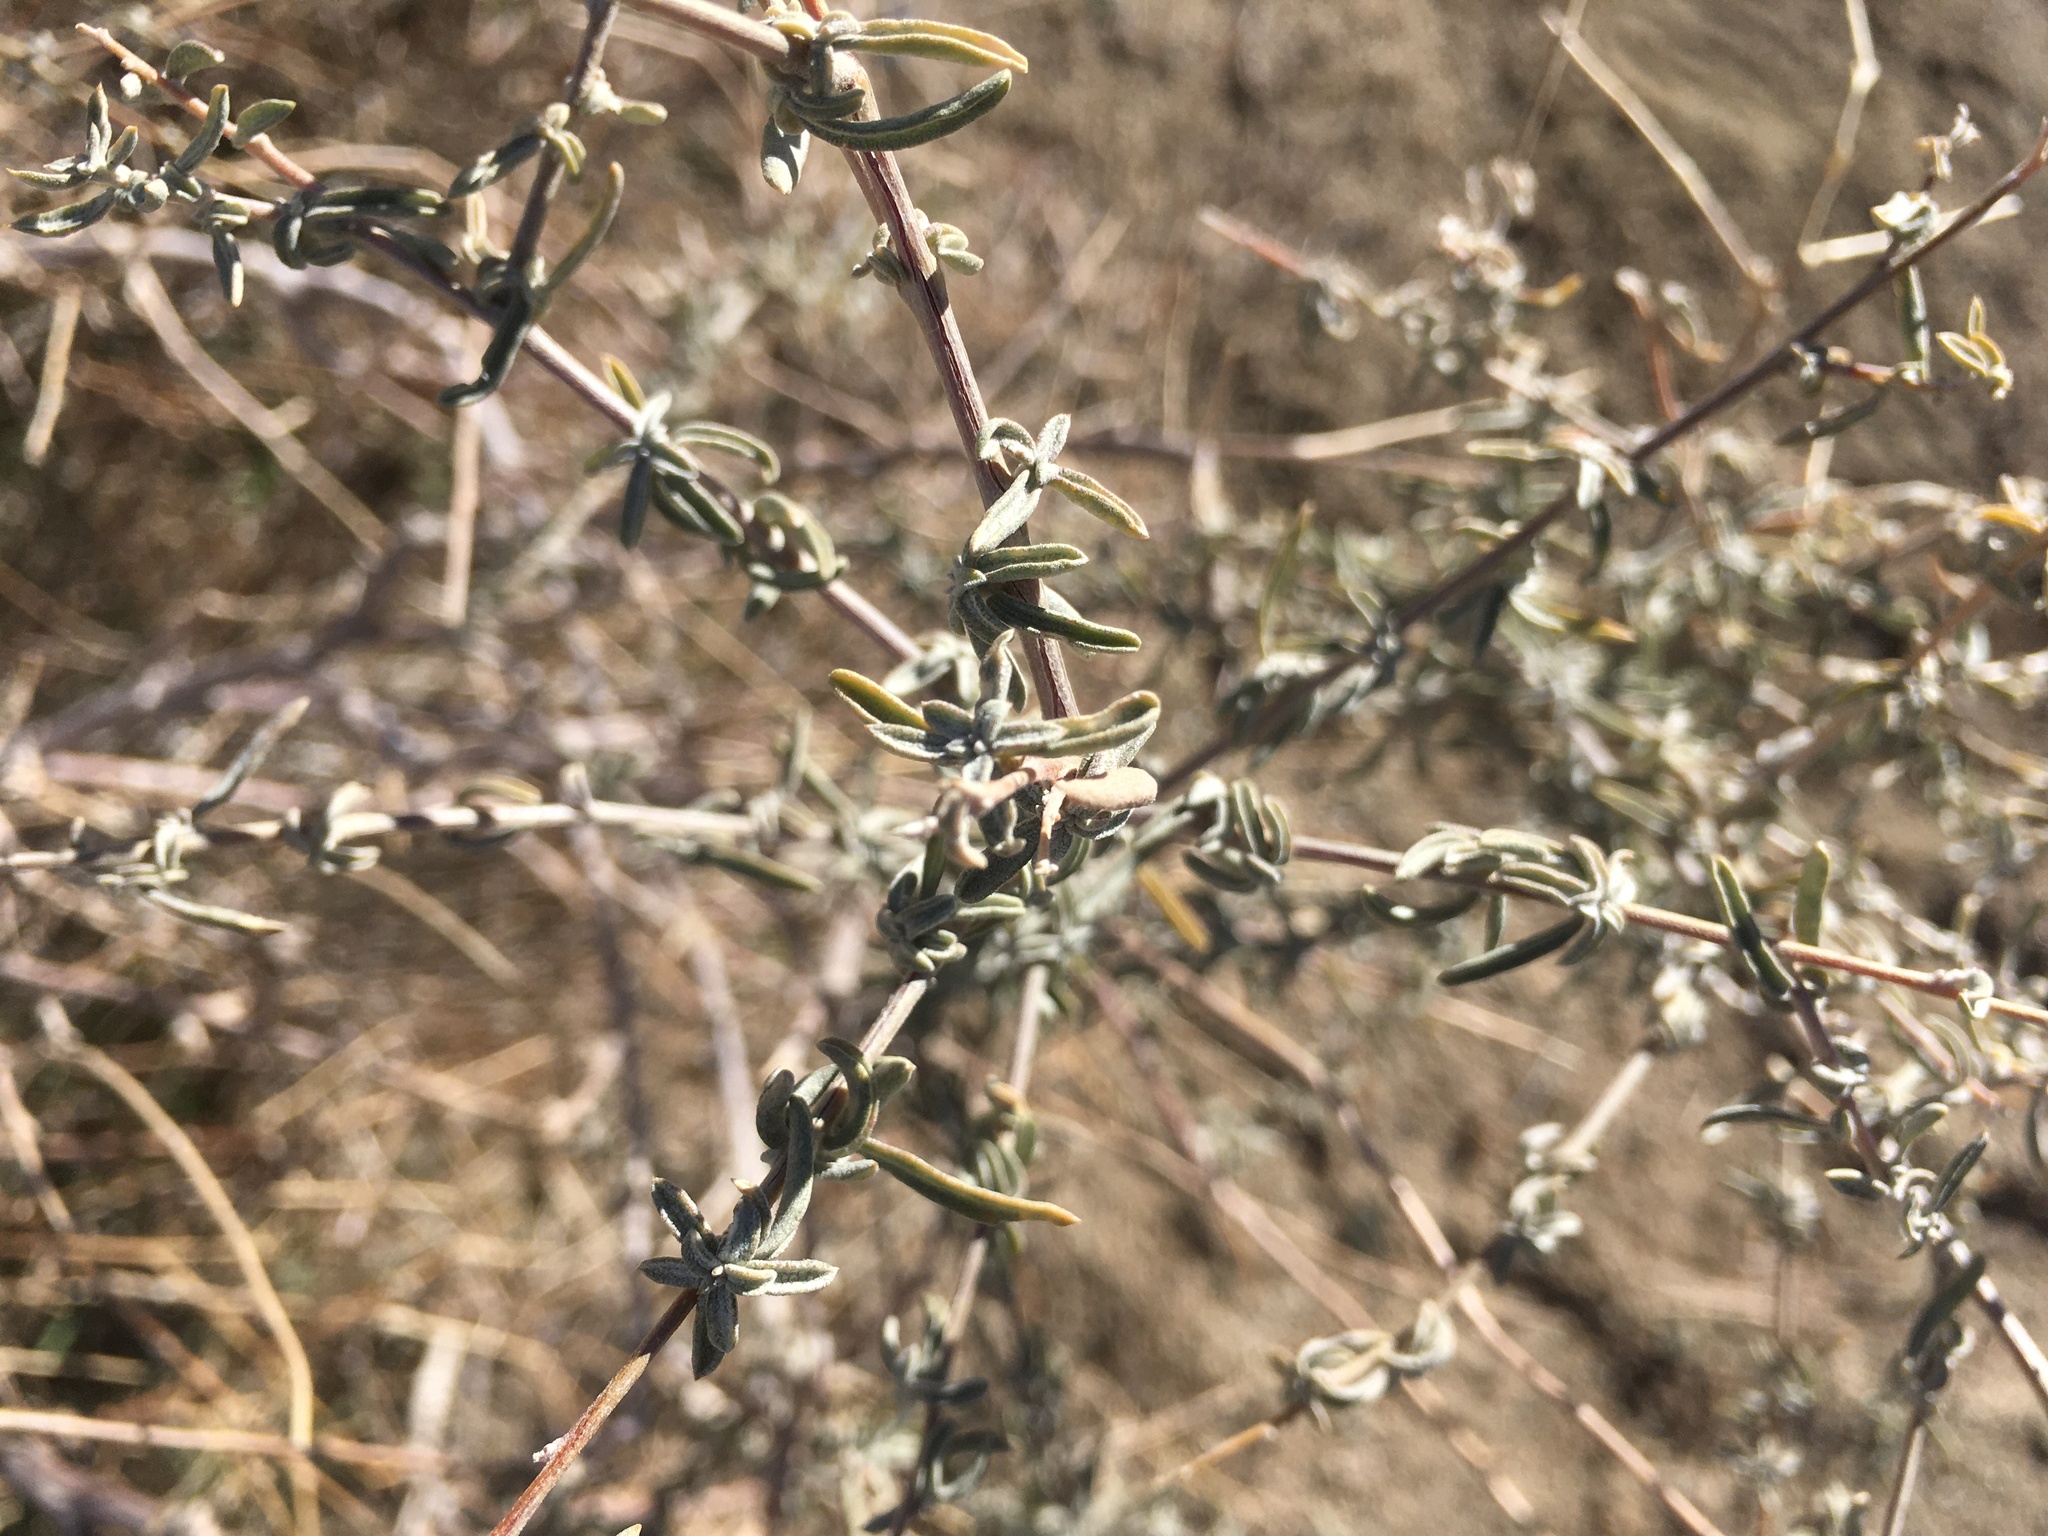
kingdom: Plantae
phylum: Tracheophyta
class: Magnoliopsida
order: Caryophyllales
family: Amaranthaceae
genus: Atriplex
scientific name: Atriplex canescens
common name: Four-wing saltbush
